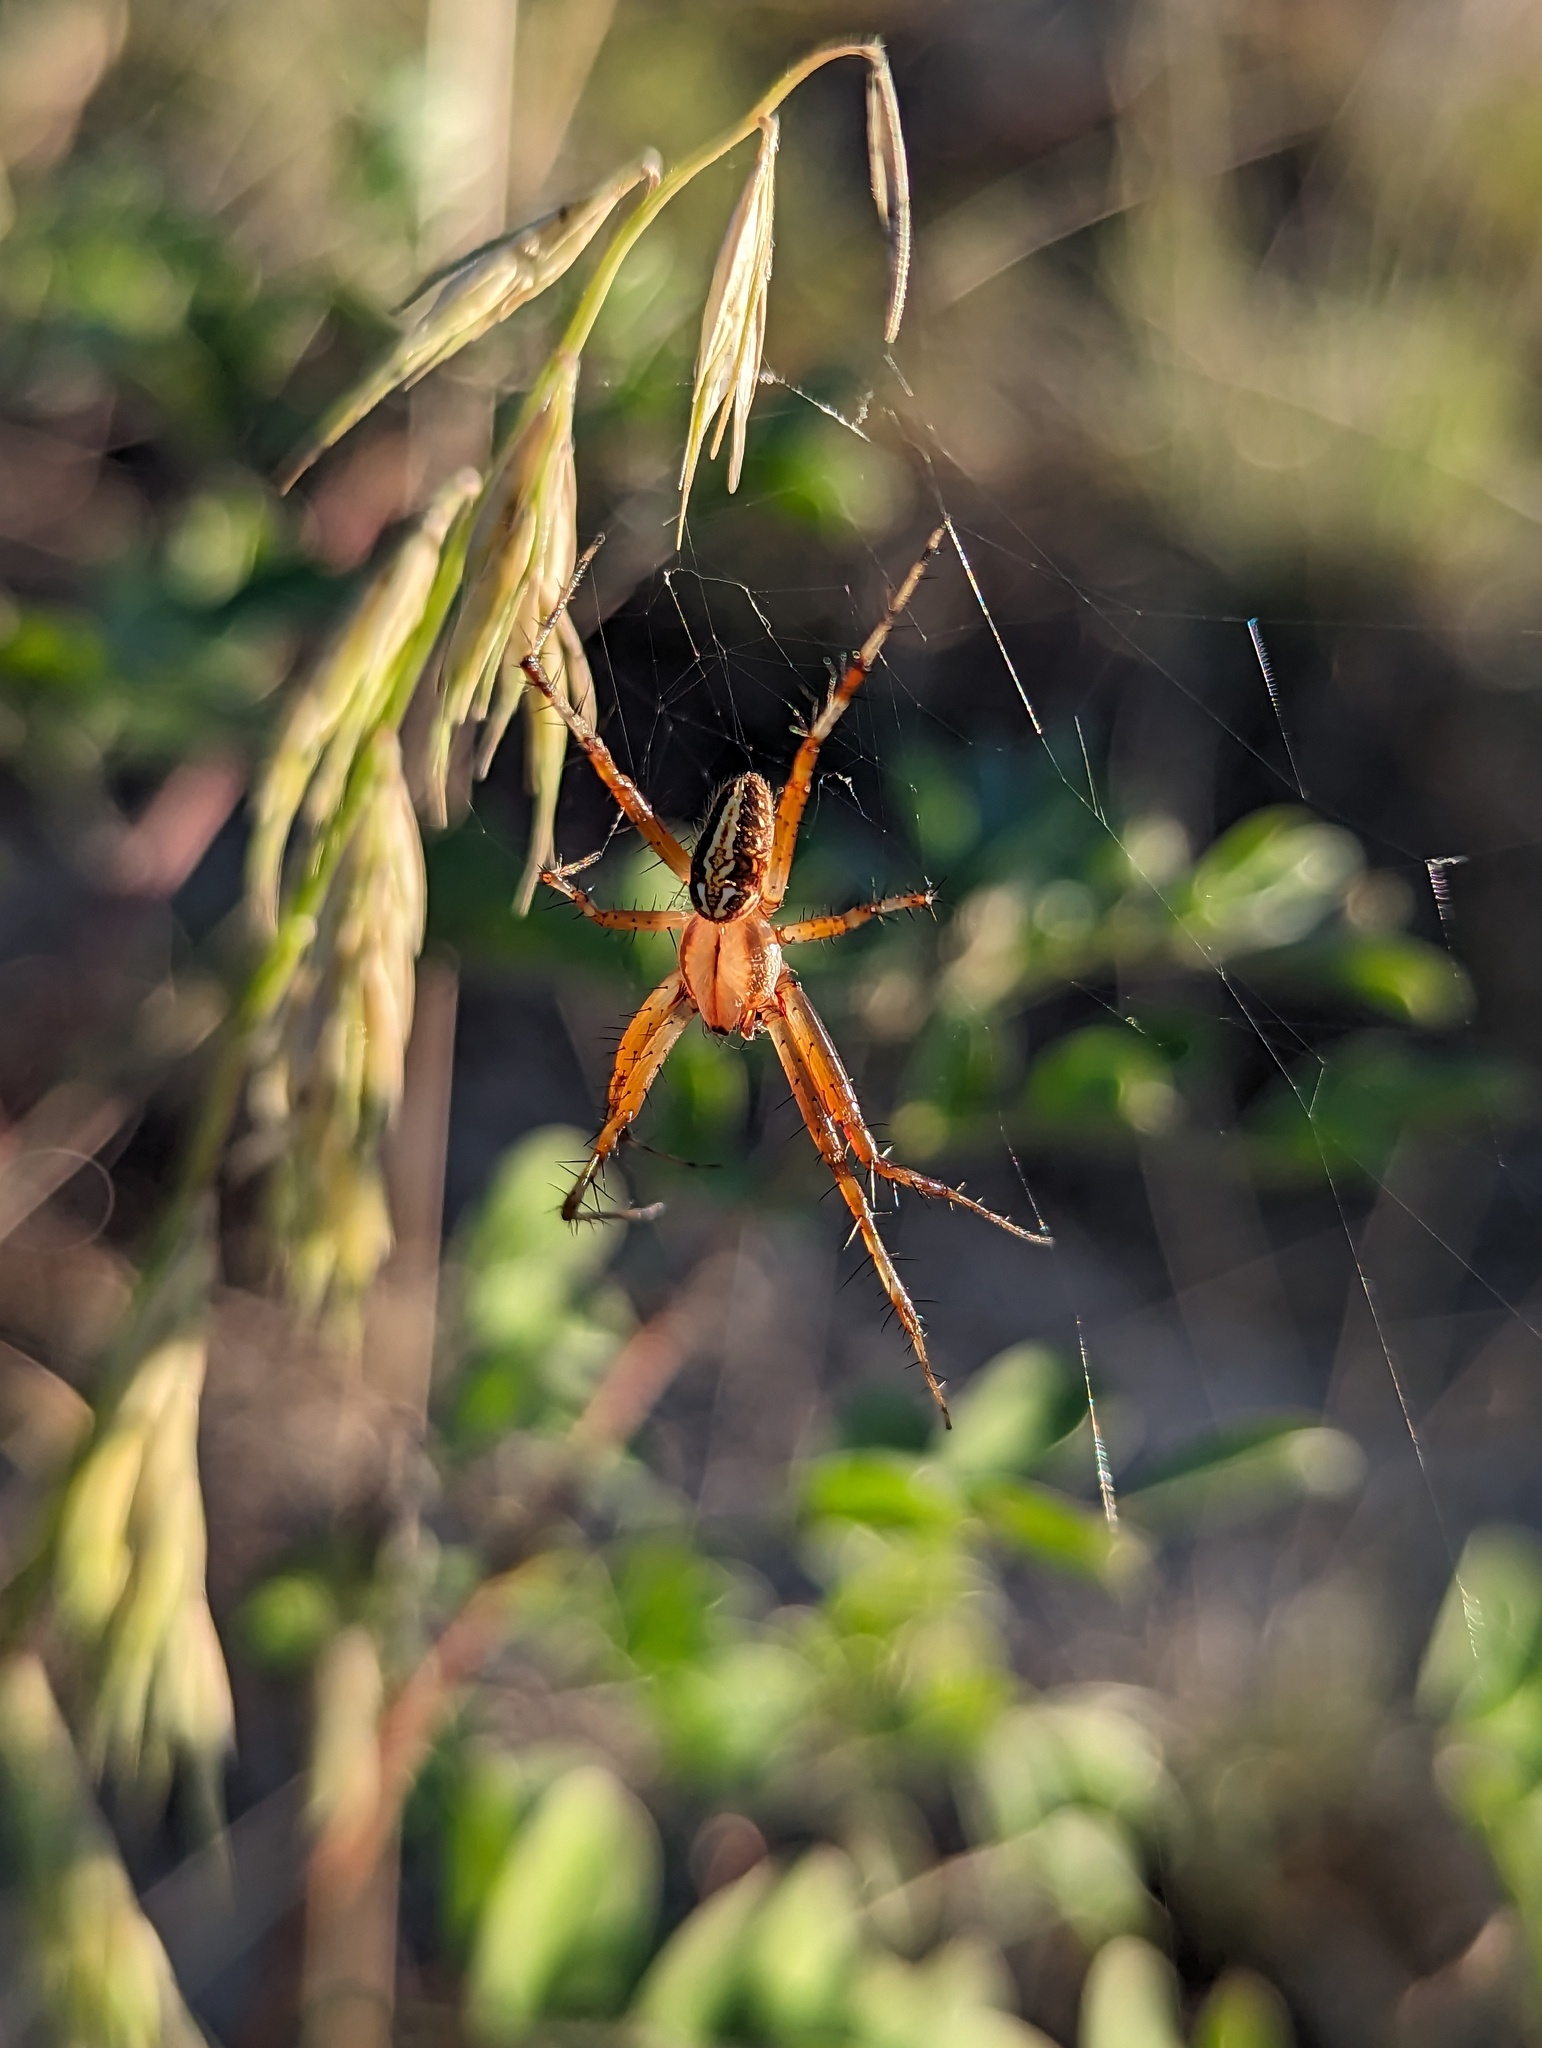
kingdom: Animalia
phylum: Arthropoda
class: Arachnida
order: Araneae
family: Araneidae
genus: Neoscona
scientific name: Neoscona oaxacensis
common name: Orb weavers
